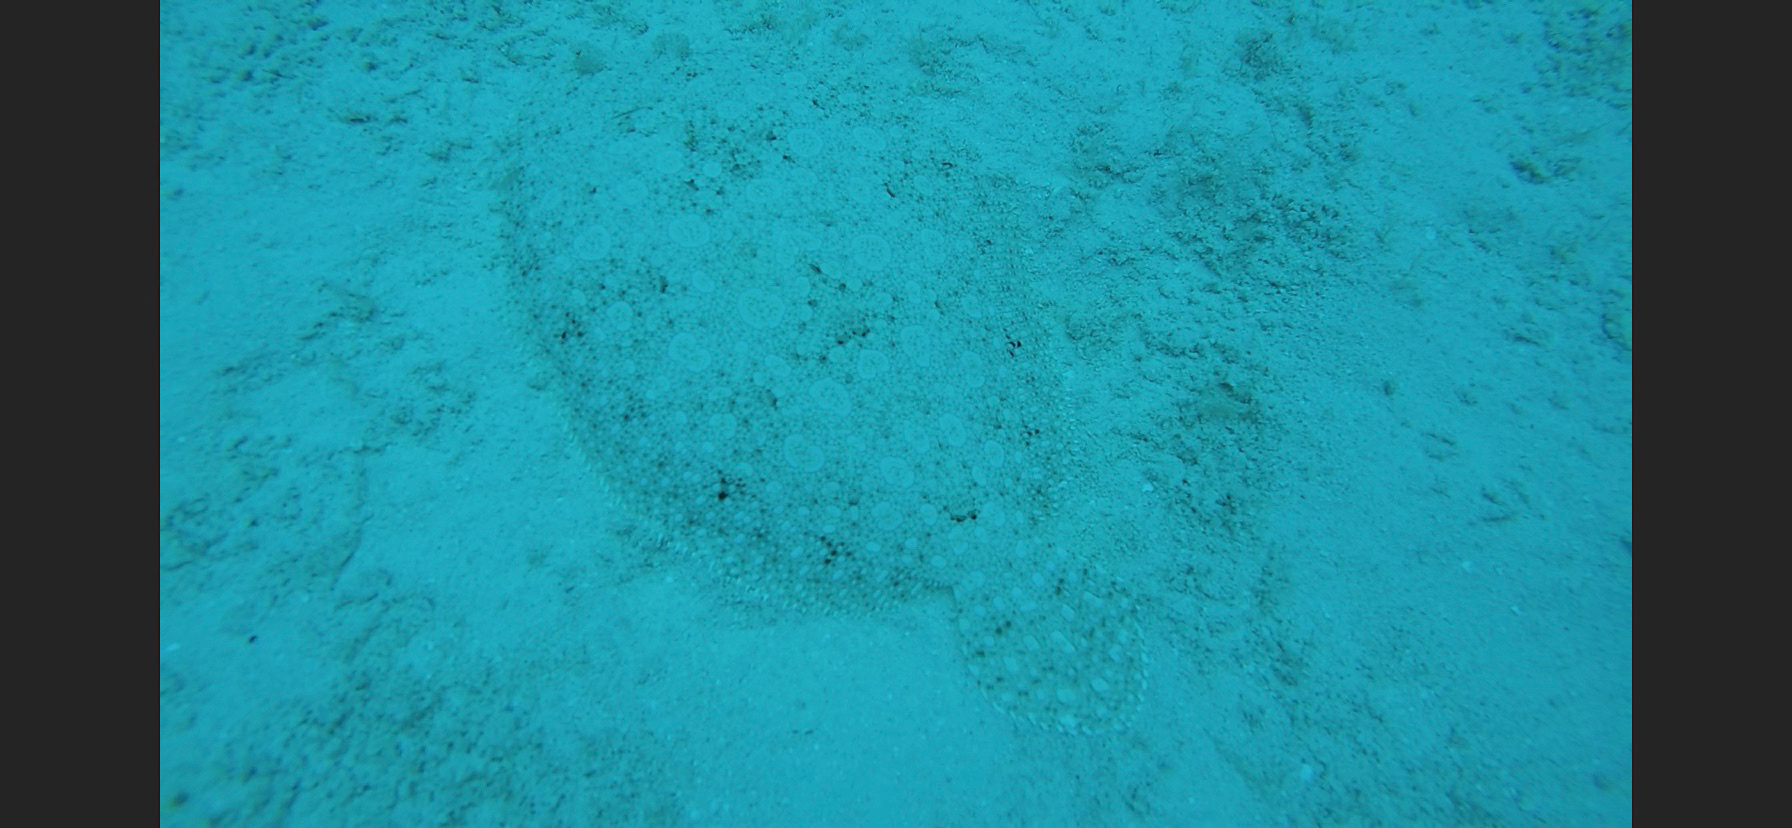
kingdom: Animalia
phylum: Chordata
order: Pleuronectiformes
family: Bothidae
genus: Bothus
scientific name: Bothus lunatus
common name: Peacock flounder
